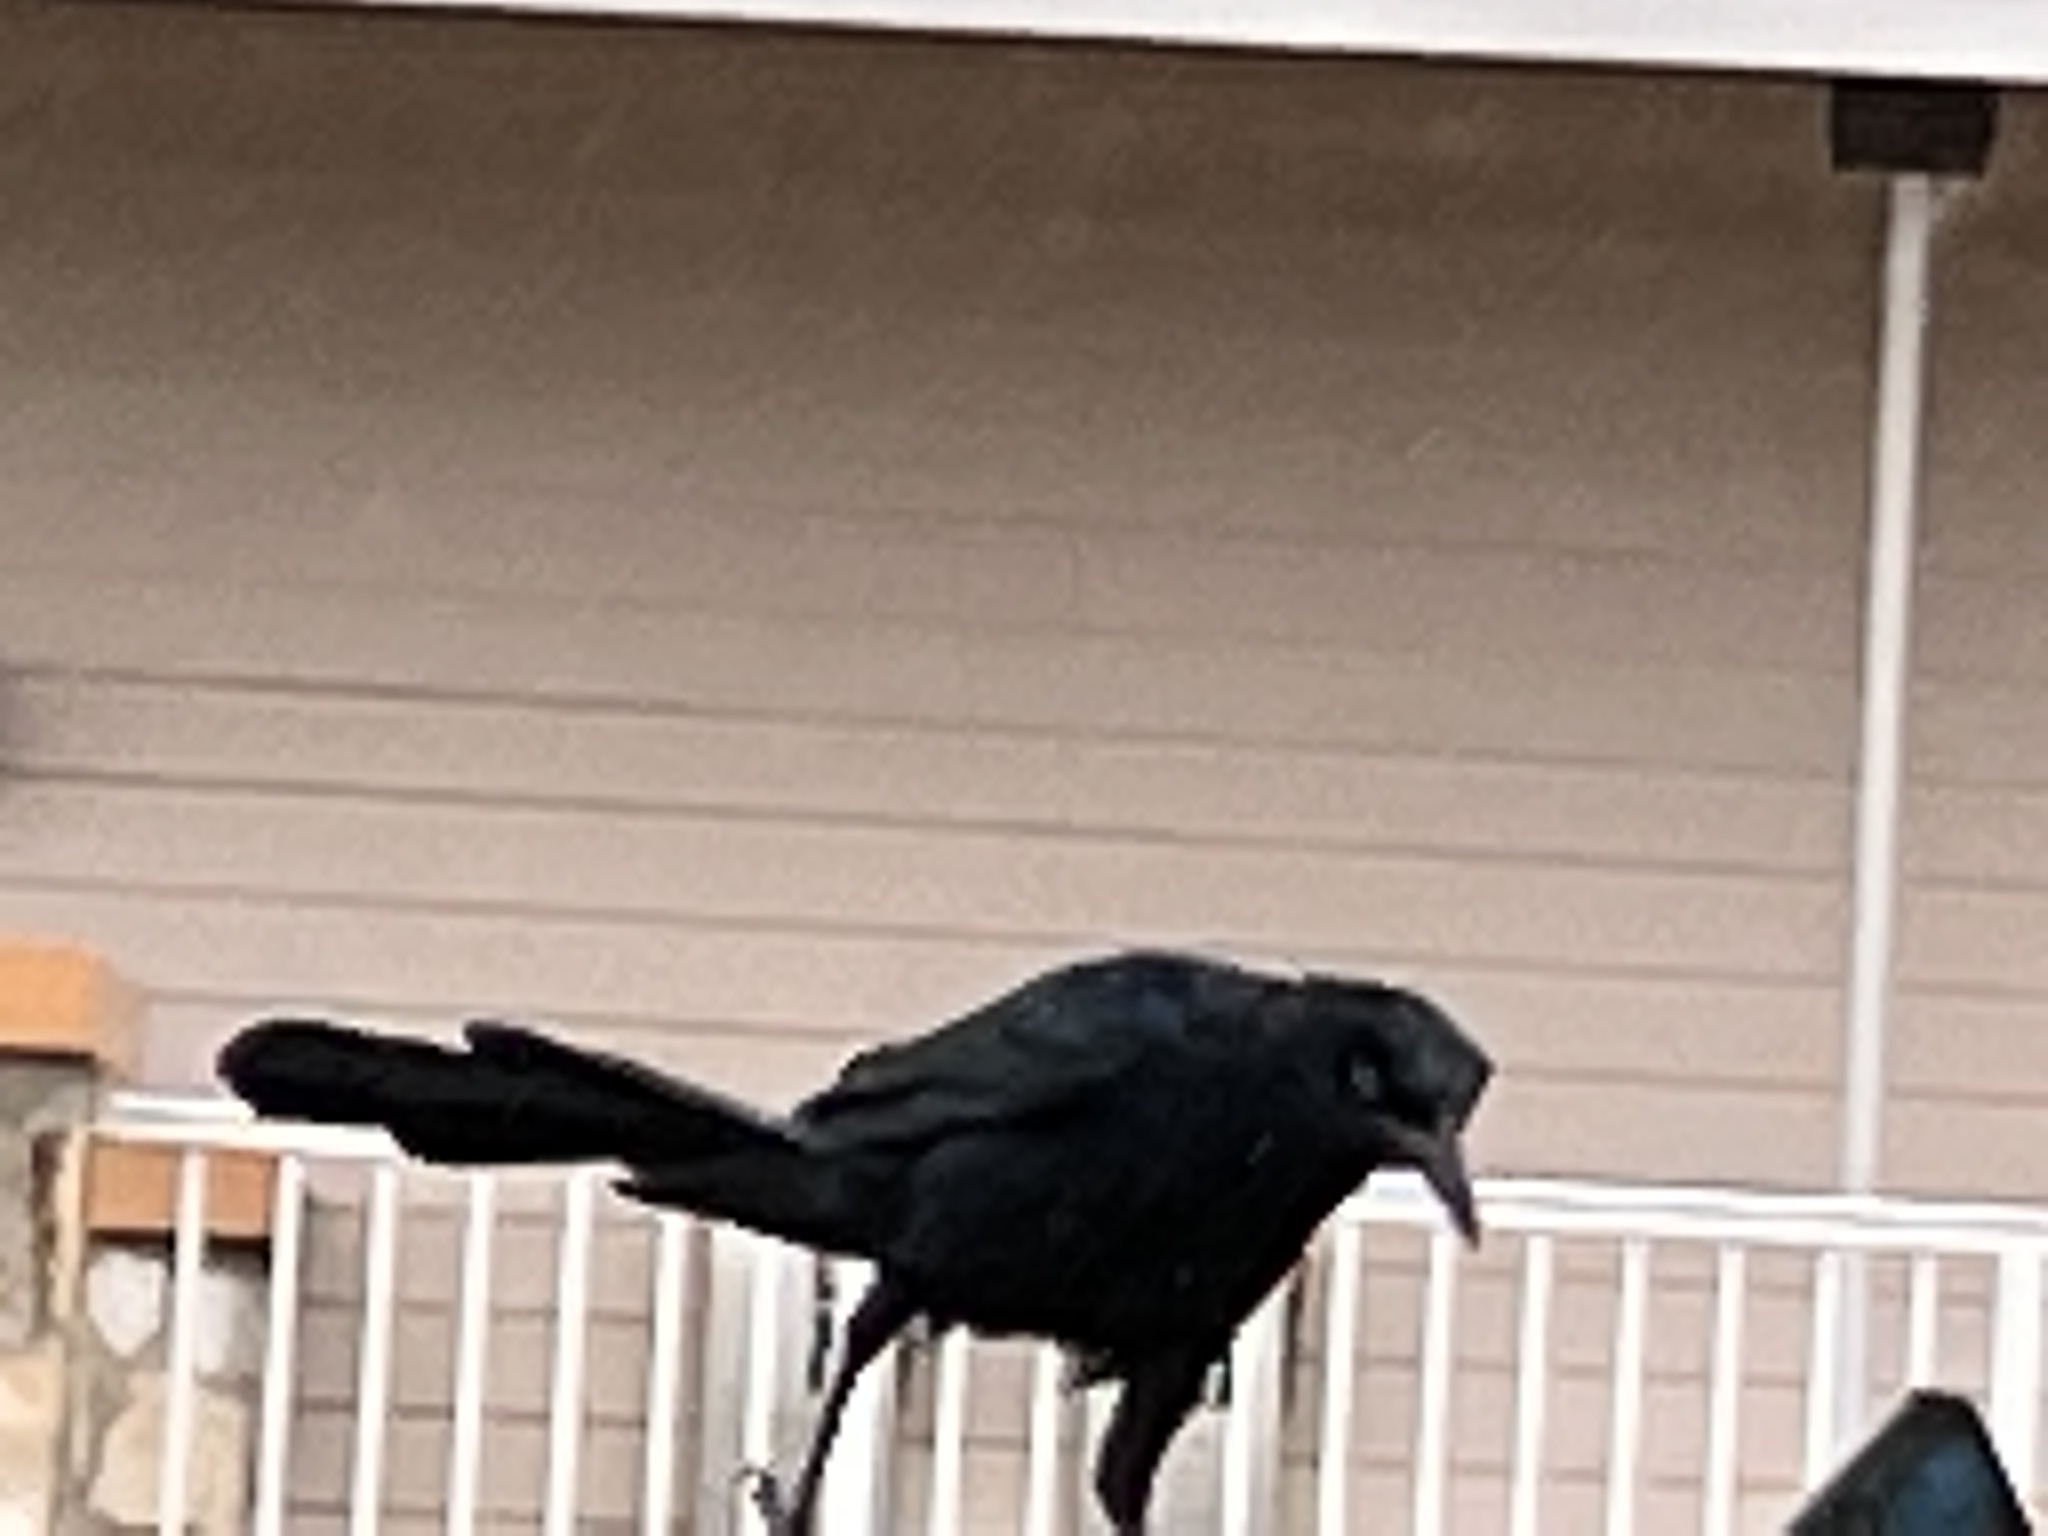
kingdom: Animalia
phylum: Chordata
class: Aves
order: Passeriformes
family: Icteridae
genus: Quiscalus
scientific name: Quiscalus mexicanus
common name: Great-tailed grackle
